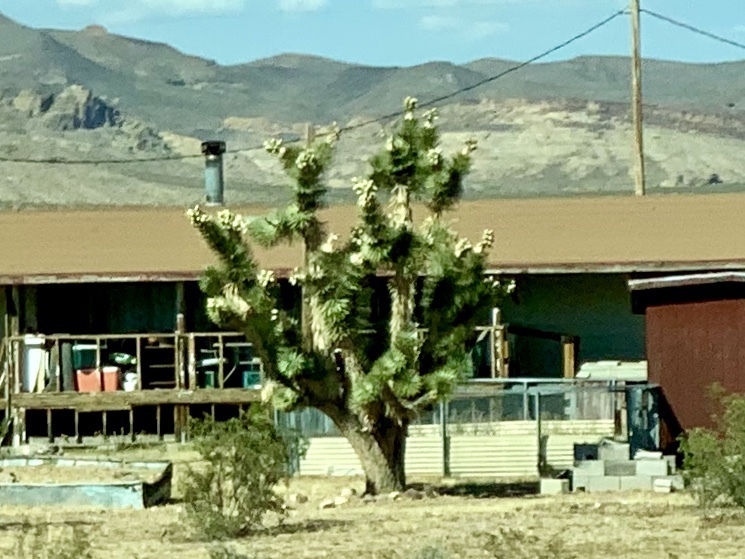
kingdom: Plantae
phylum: Tracheophyta
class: Liliopsida
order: Asparagales
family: Asparagaceae
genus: Yucca
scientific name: Yucca brevifolia
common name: Joshua tree
